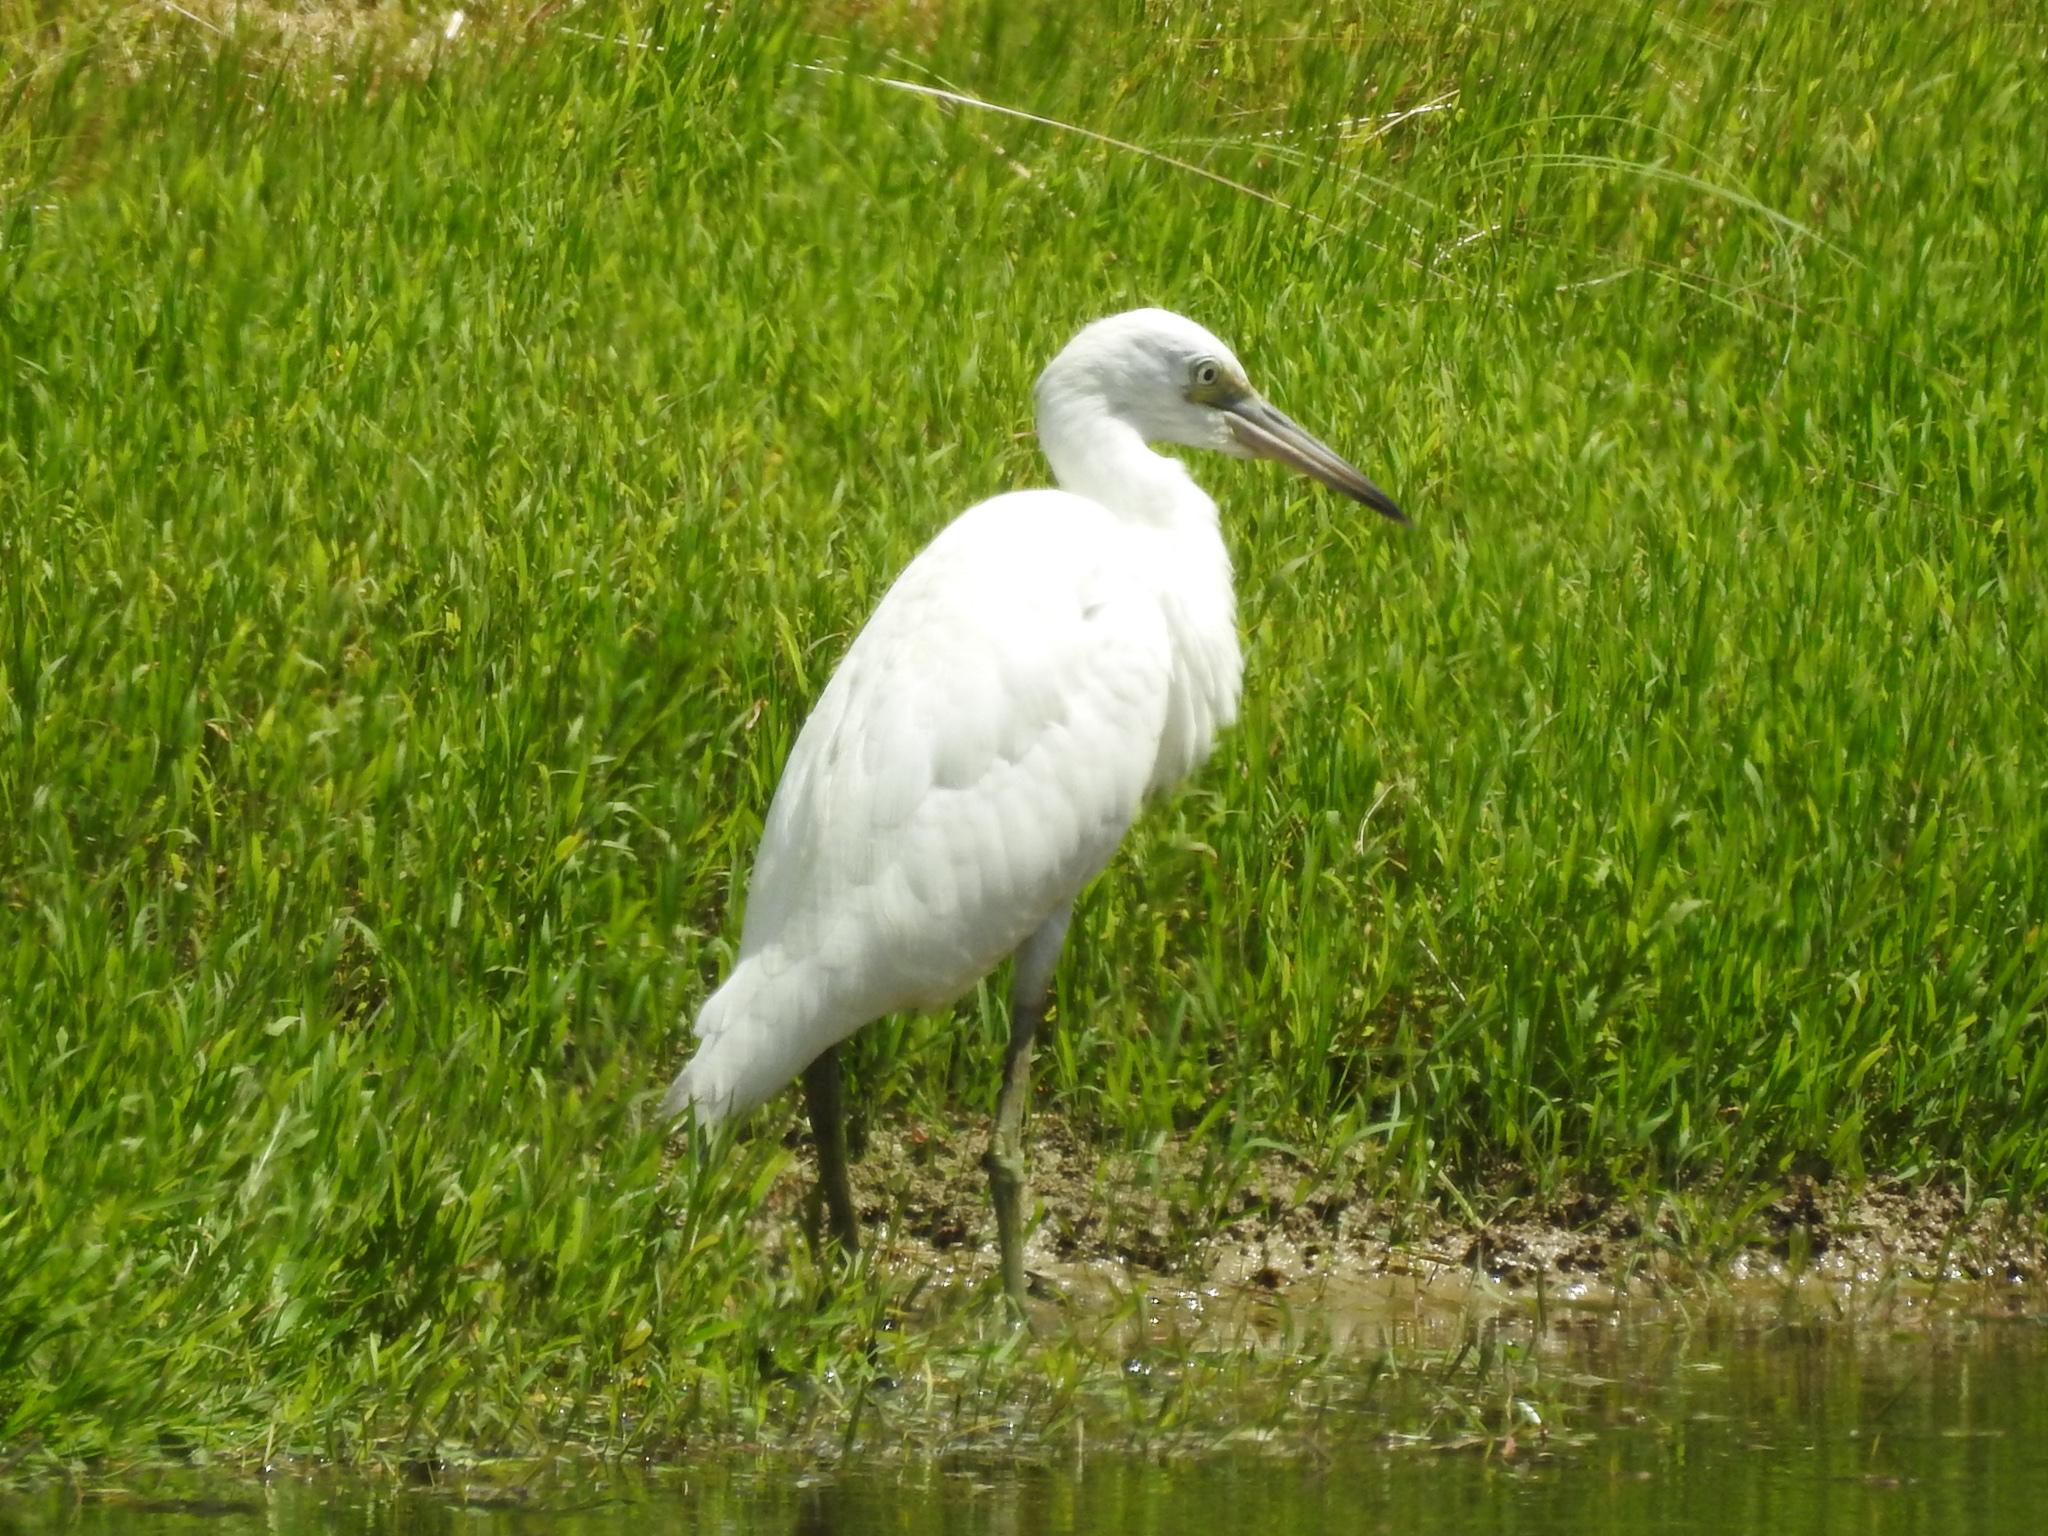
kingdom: Animalia
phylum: Chordata
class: Aves
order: Pelecaniformes
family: Ardeidae
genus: Egretta
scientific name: Egretta caerulea
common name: Little blue heron
